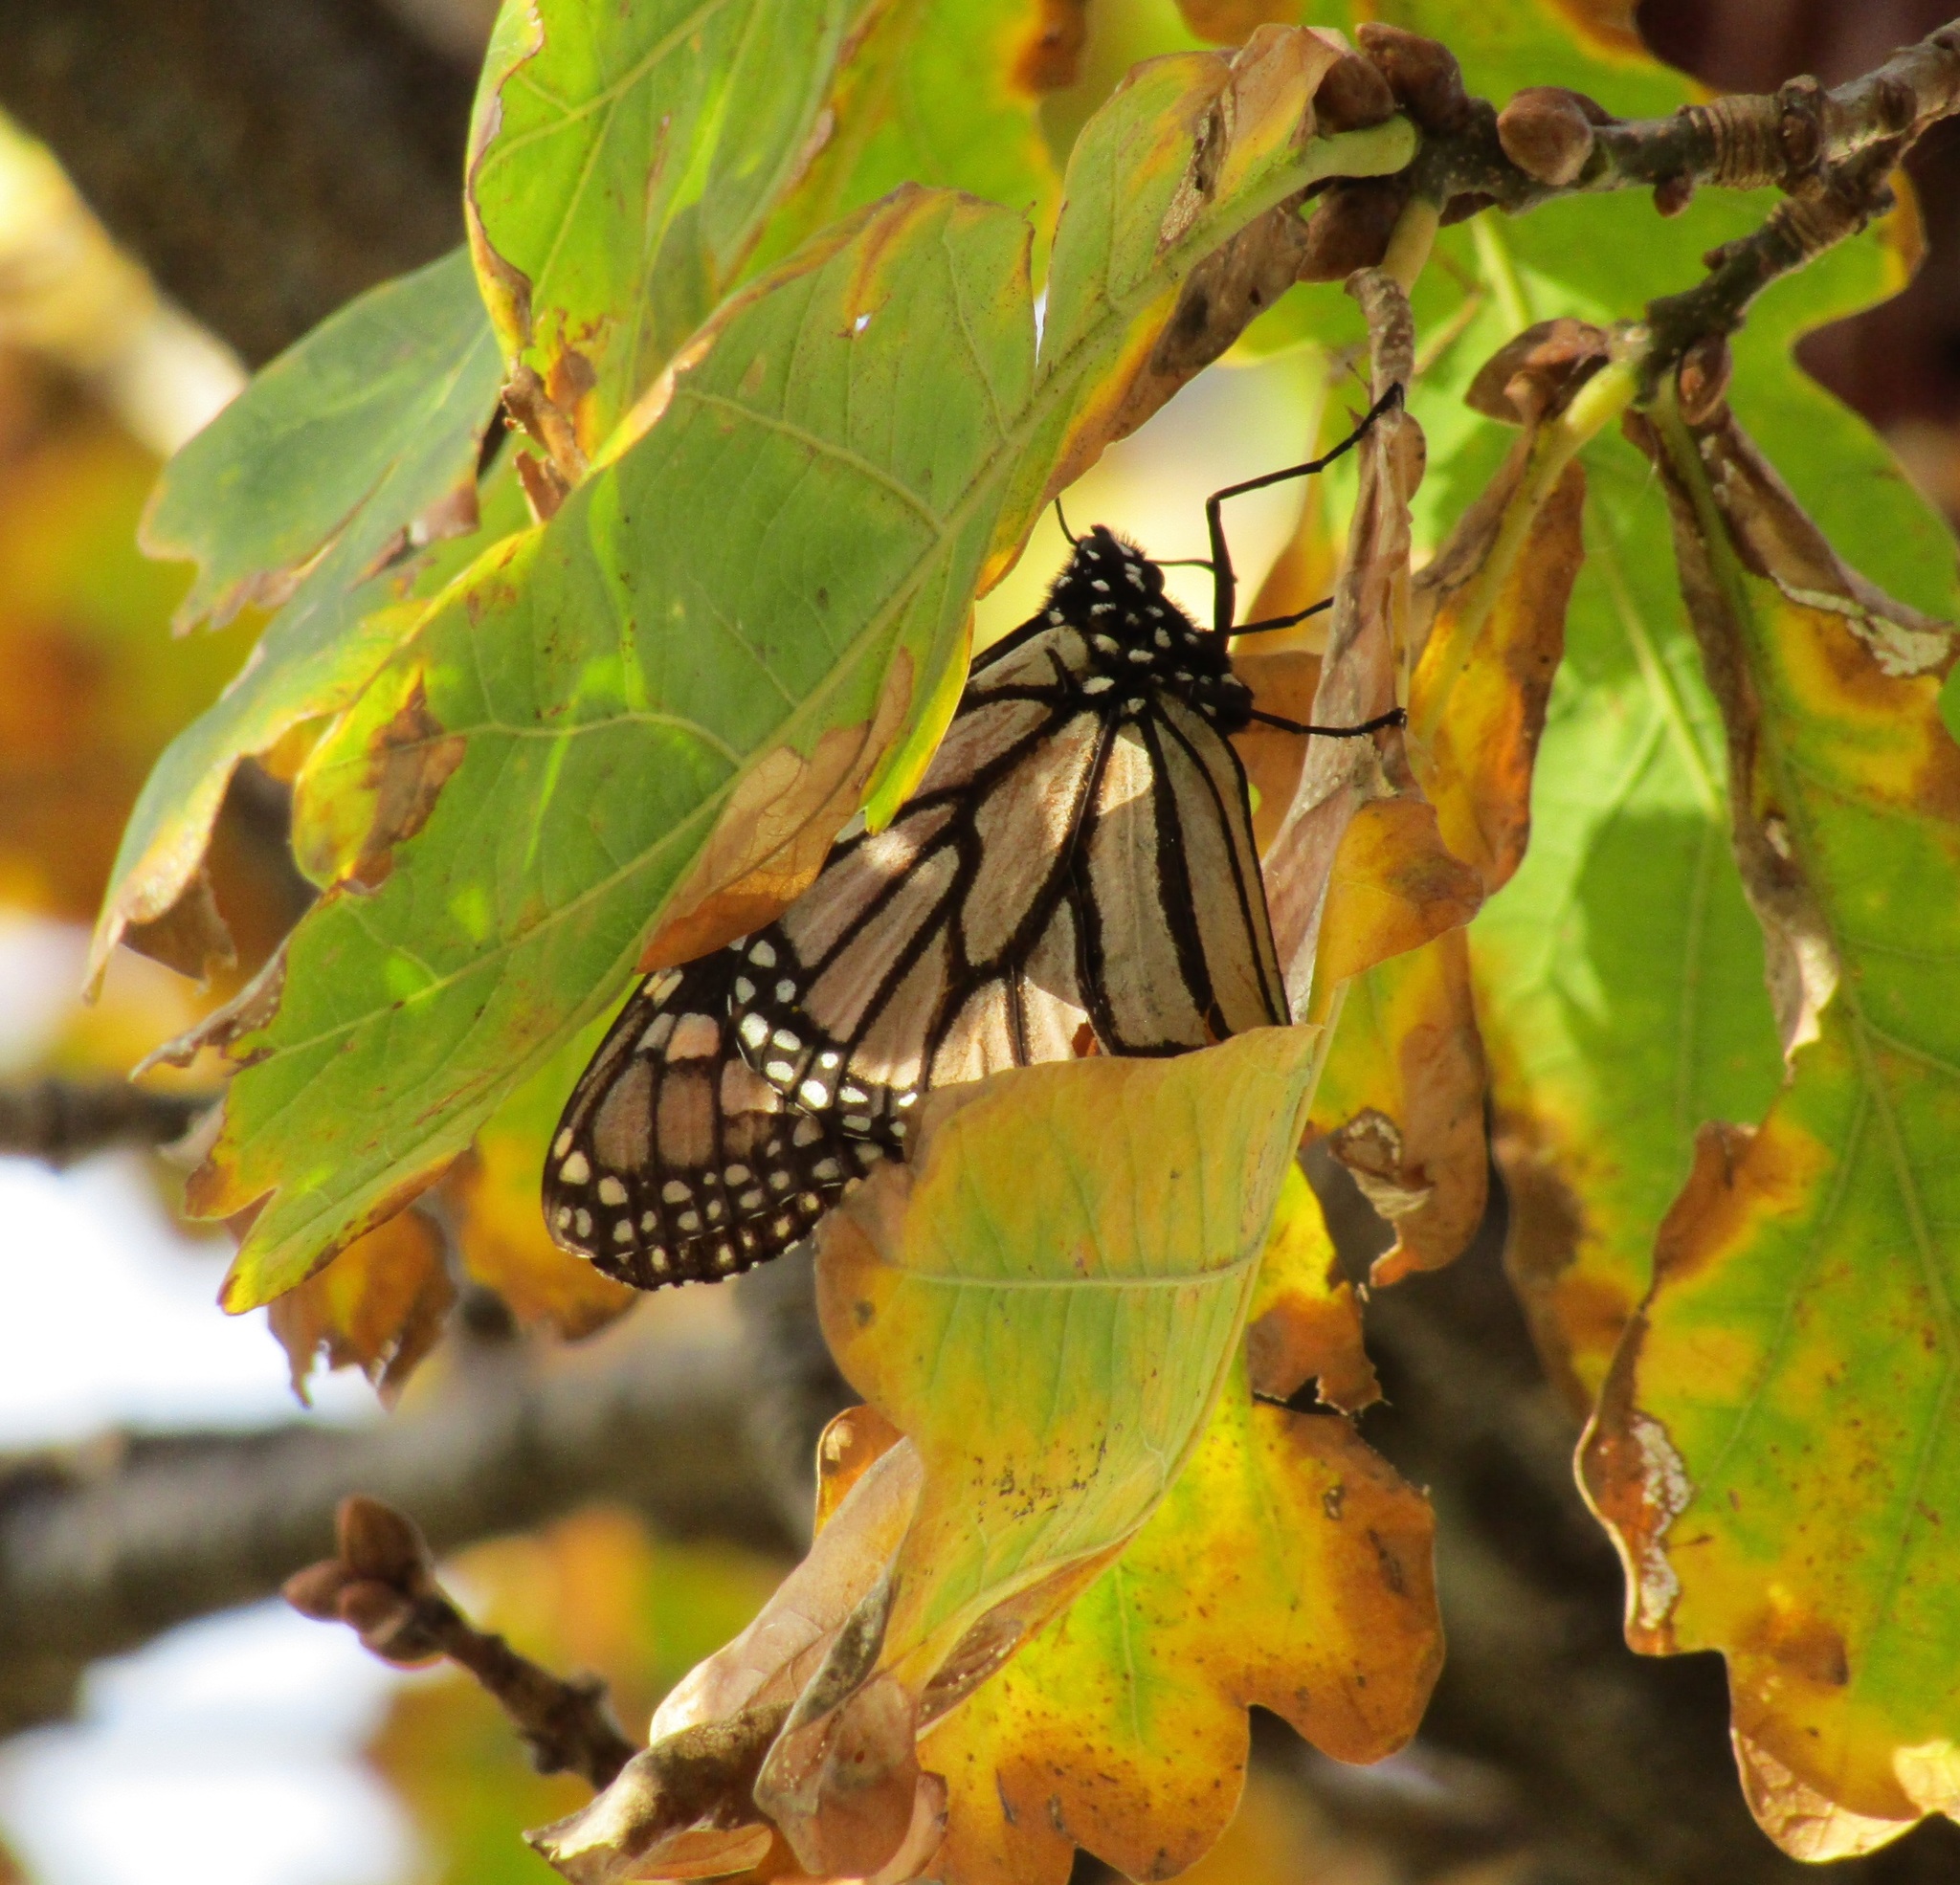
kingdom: Animalia
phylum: Arthropoda
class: Insecta
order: Lepidoptera
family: Nymphalidae
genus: Danaus
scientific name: Danaus plexippus
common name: Monarch
